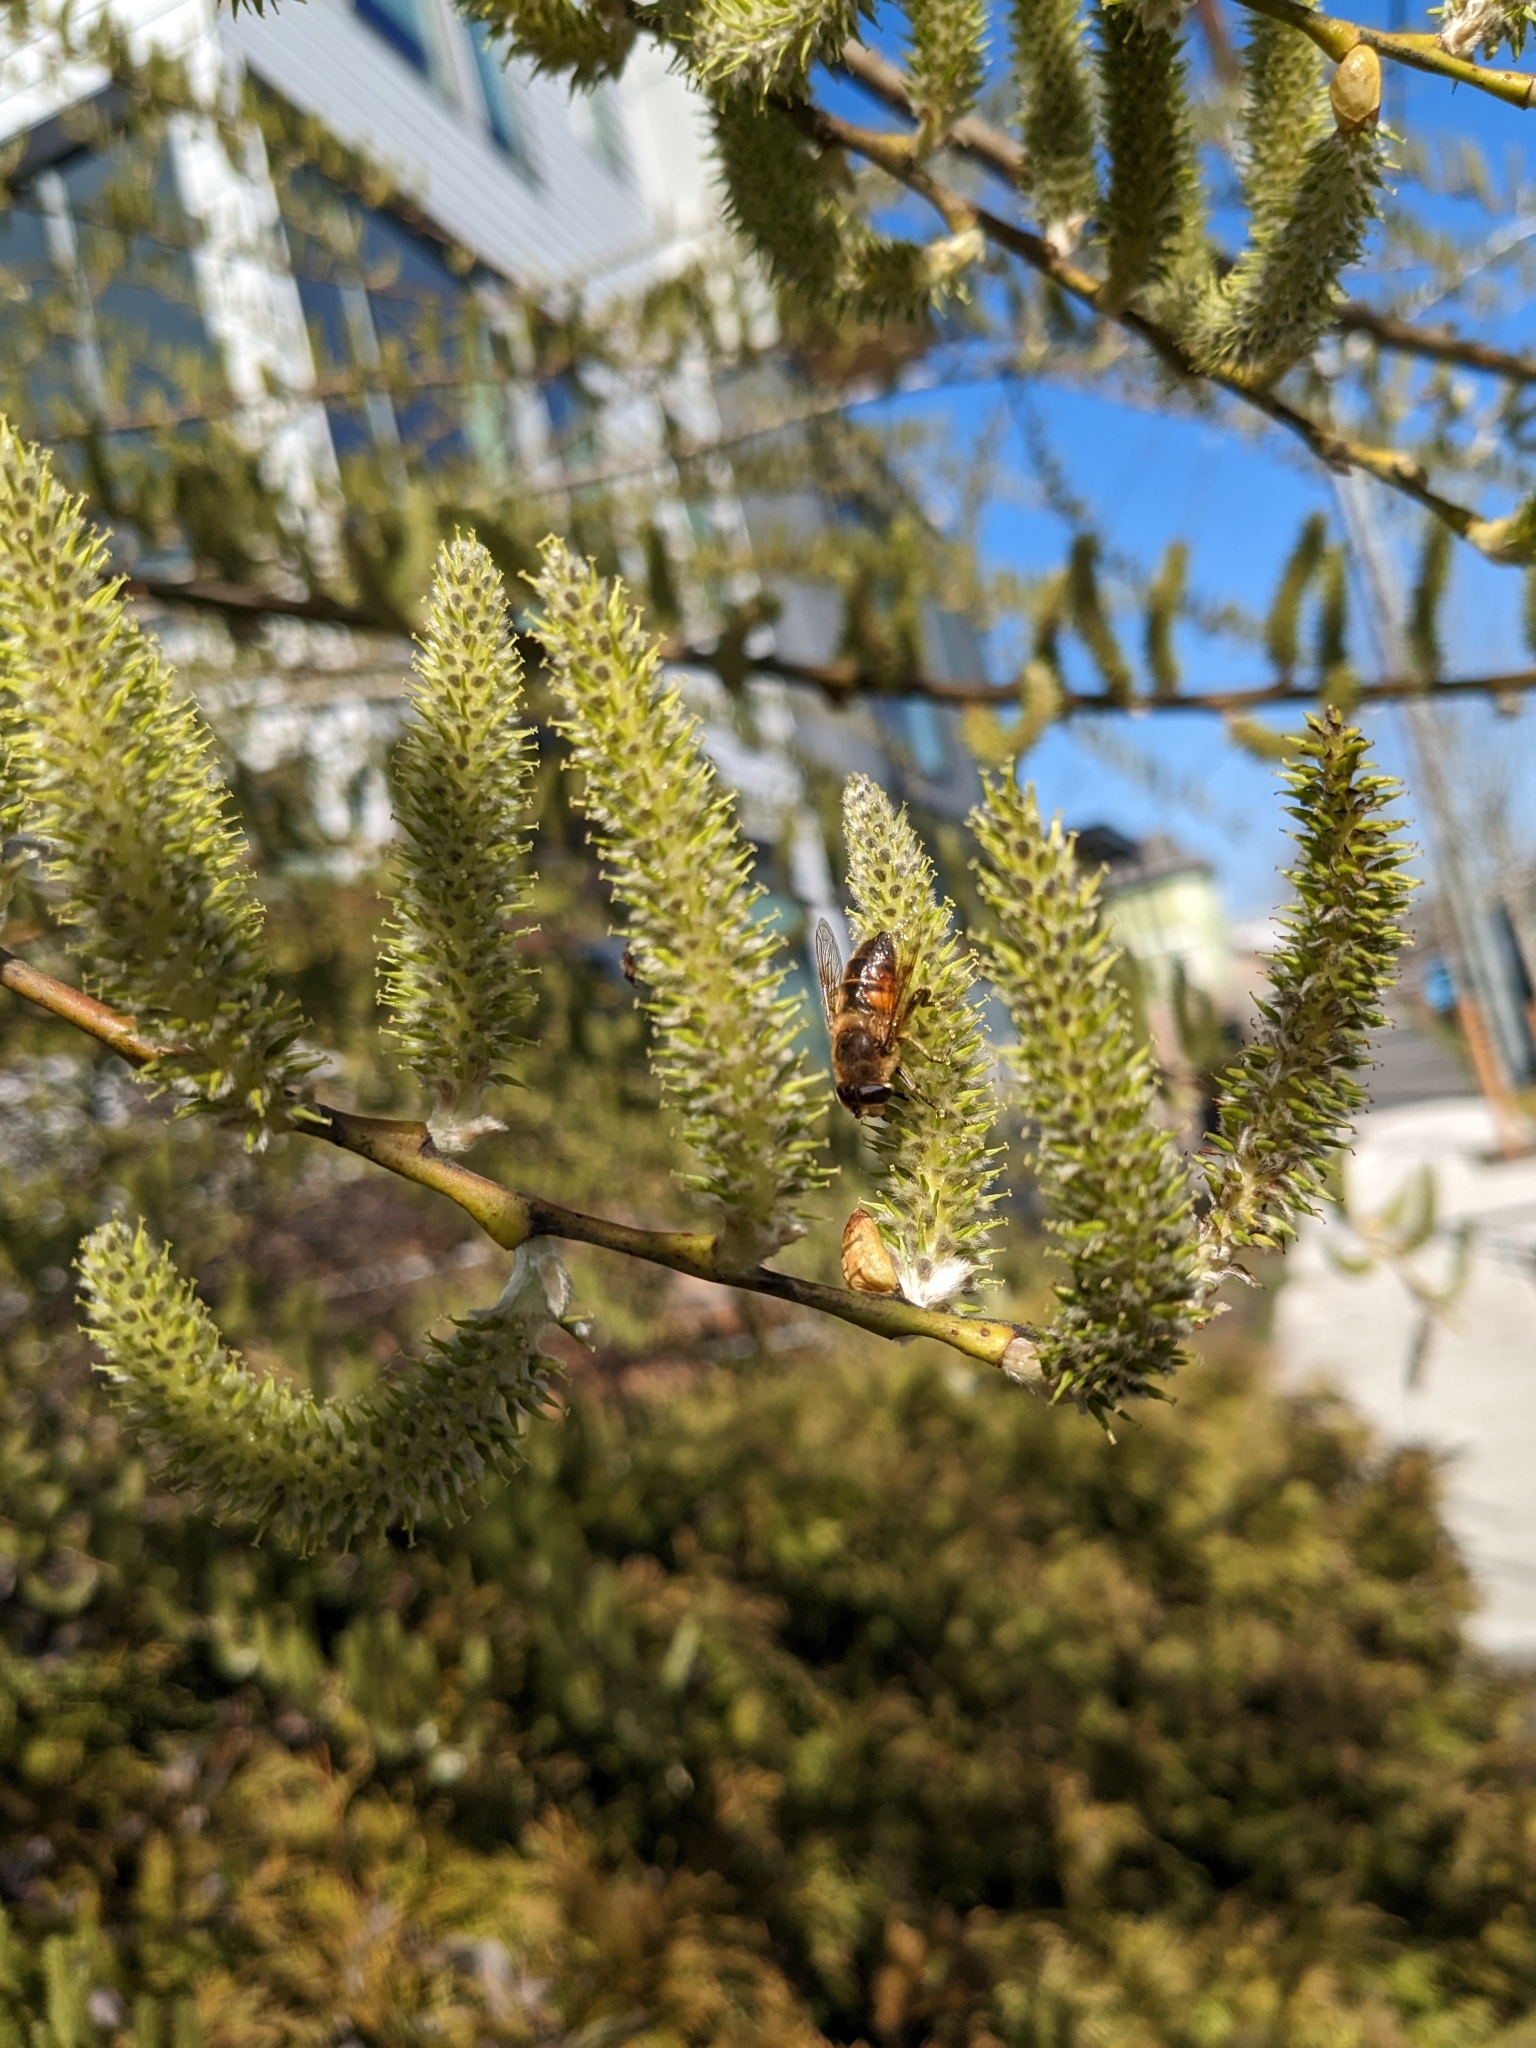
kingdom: Animalia
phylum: Arthropoda
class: Insecta
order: Diptera
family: Syrphidae
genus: Eristalis
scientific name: Eristalis tenax
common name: Drone fly
